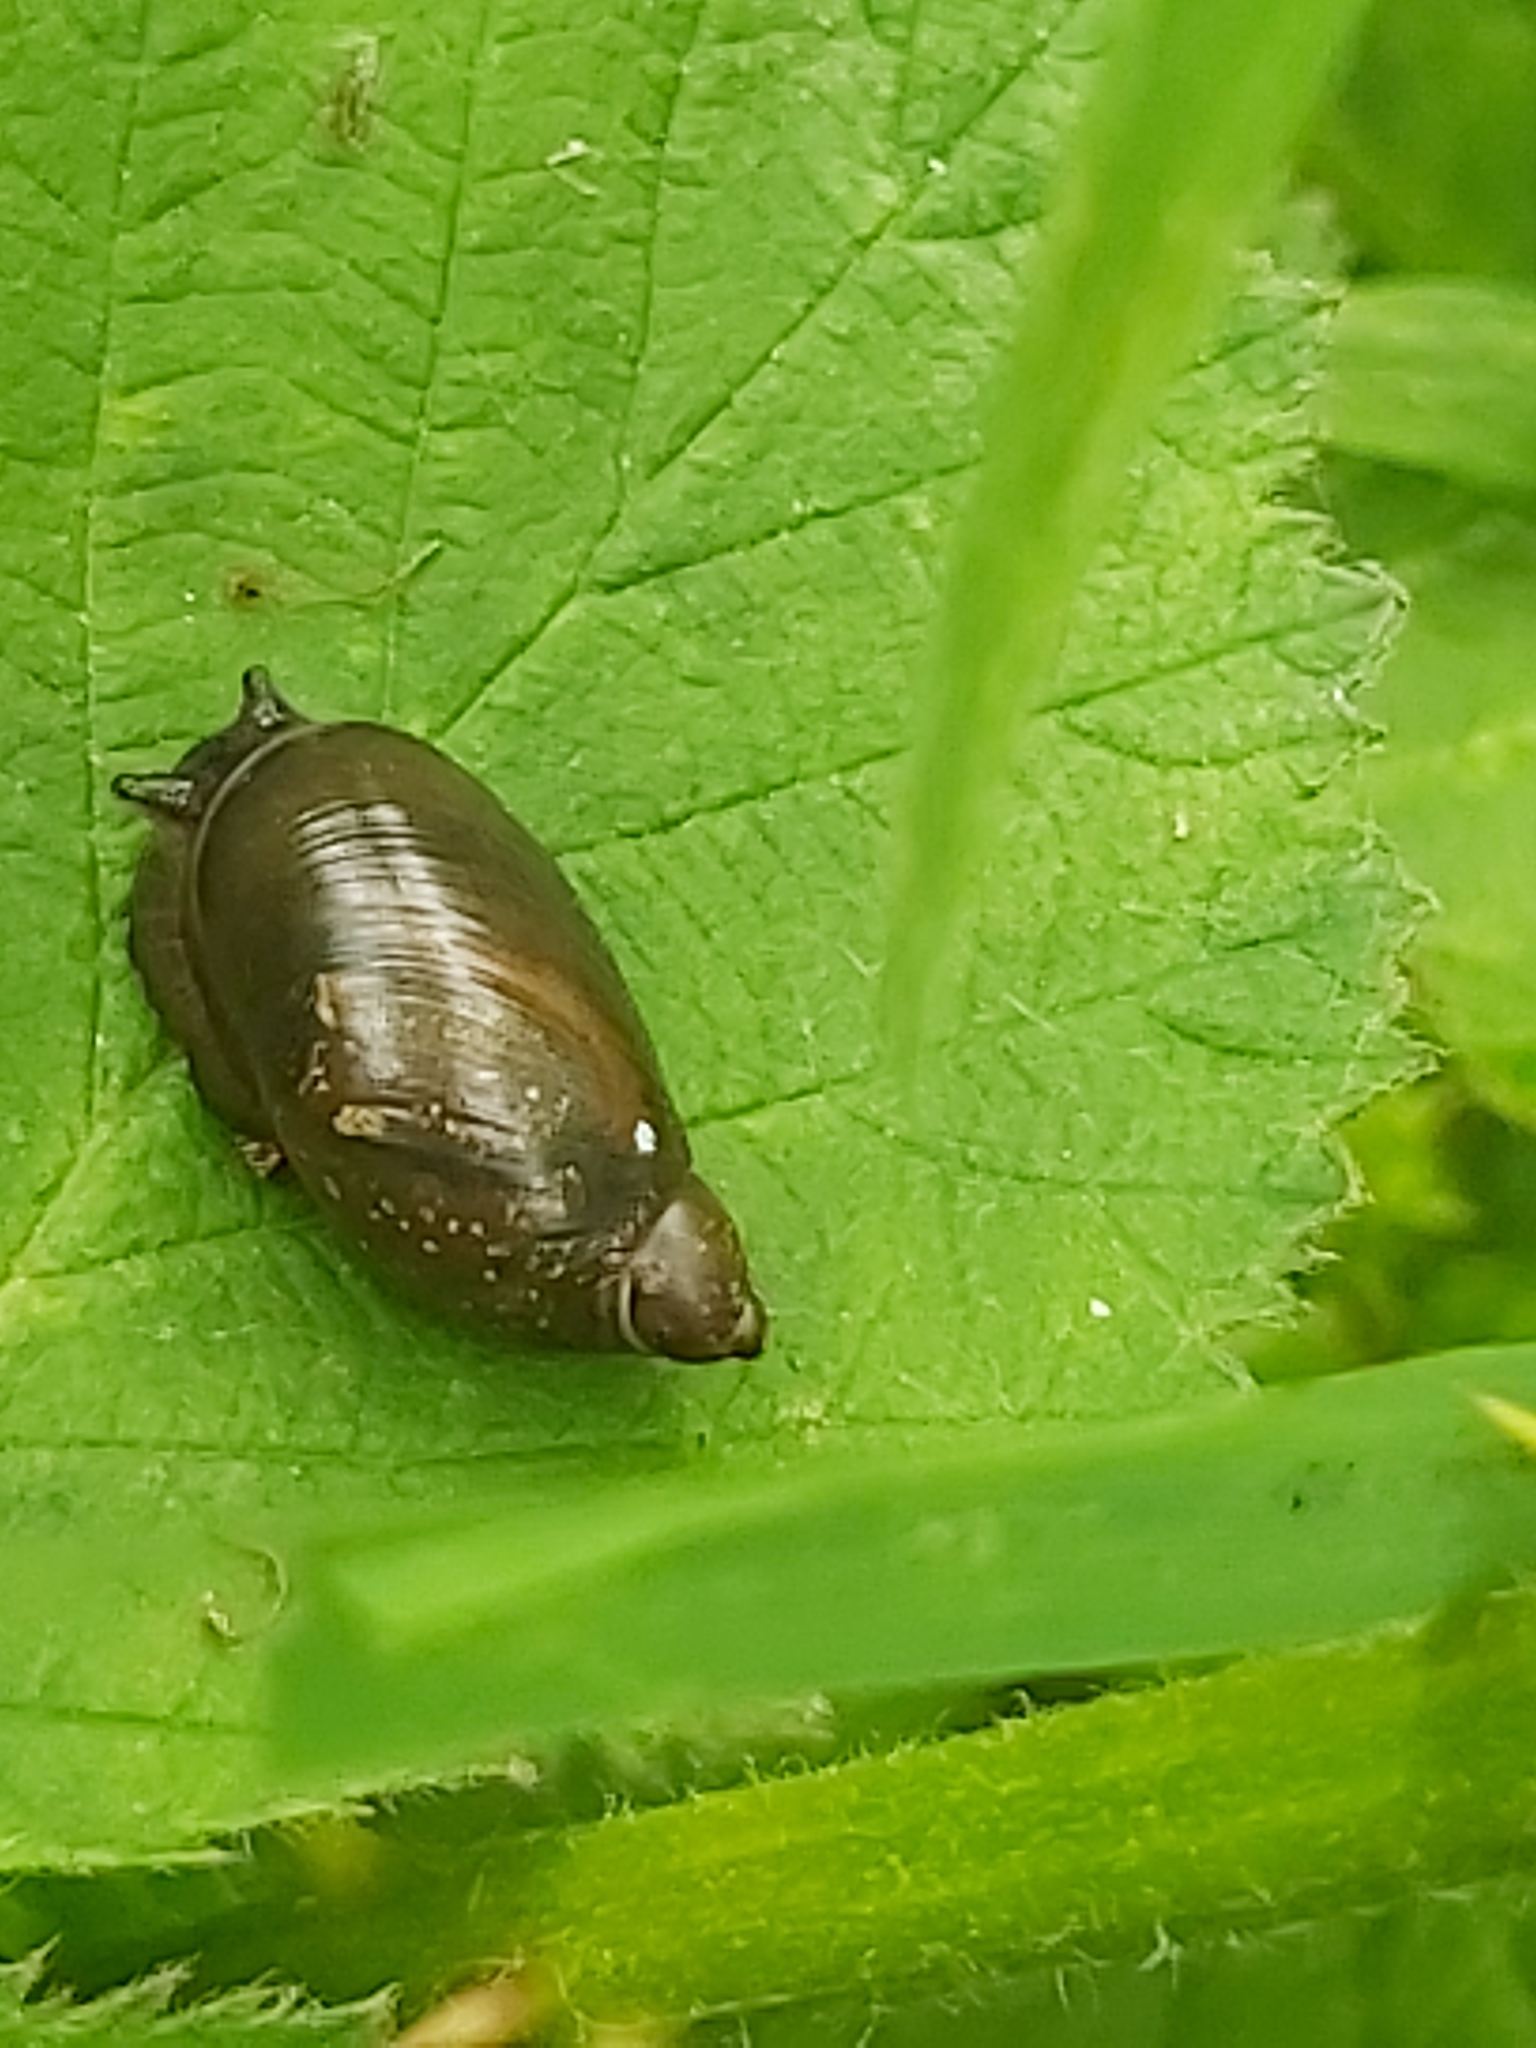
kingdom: Animalia
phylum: Mollusca
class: Gastropoda
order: Stylommatophora
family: Succineidae
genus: Succinea
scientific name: Succinea putris
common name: European ambersnail
